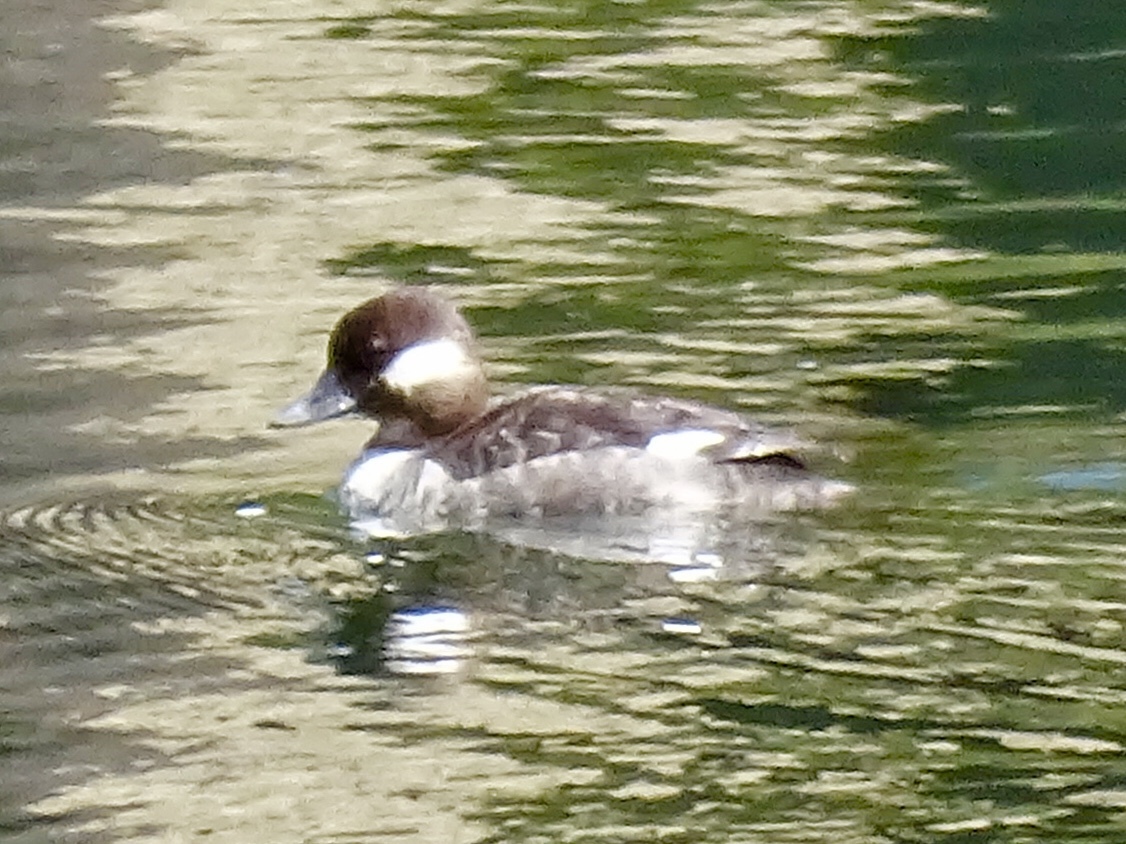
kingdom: Animalia
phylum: Chordata
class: Aves
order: Anseriformes
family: Anatidae
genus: Bucephala
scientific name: Bucephala albeola
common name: Bufflehead
